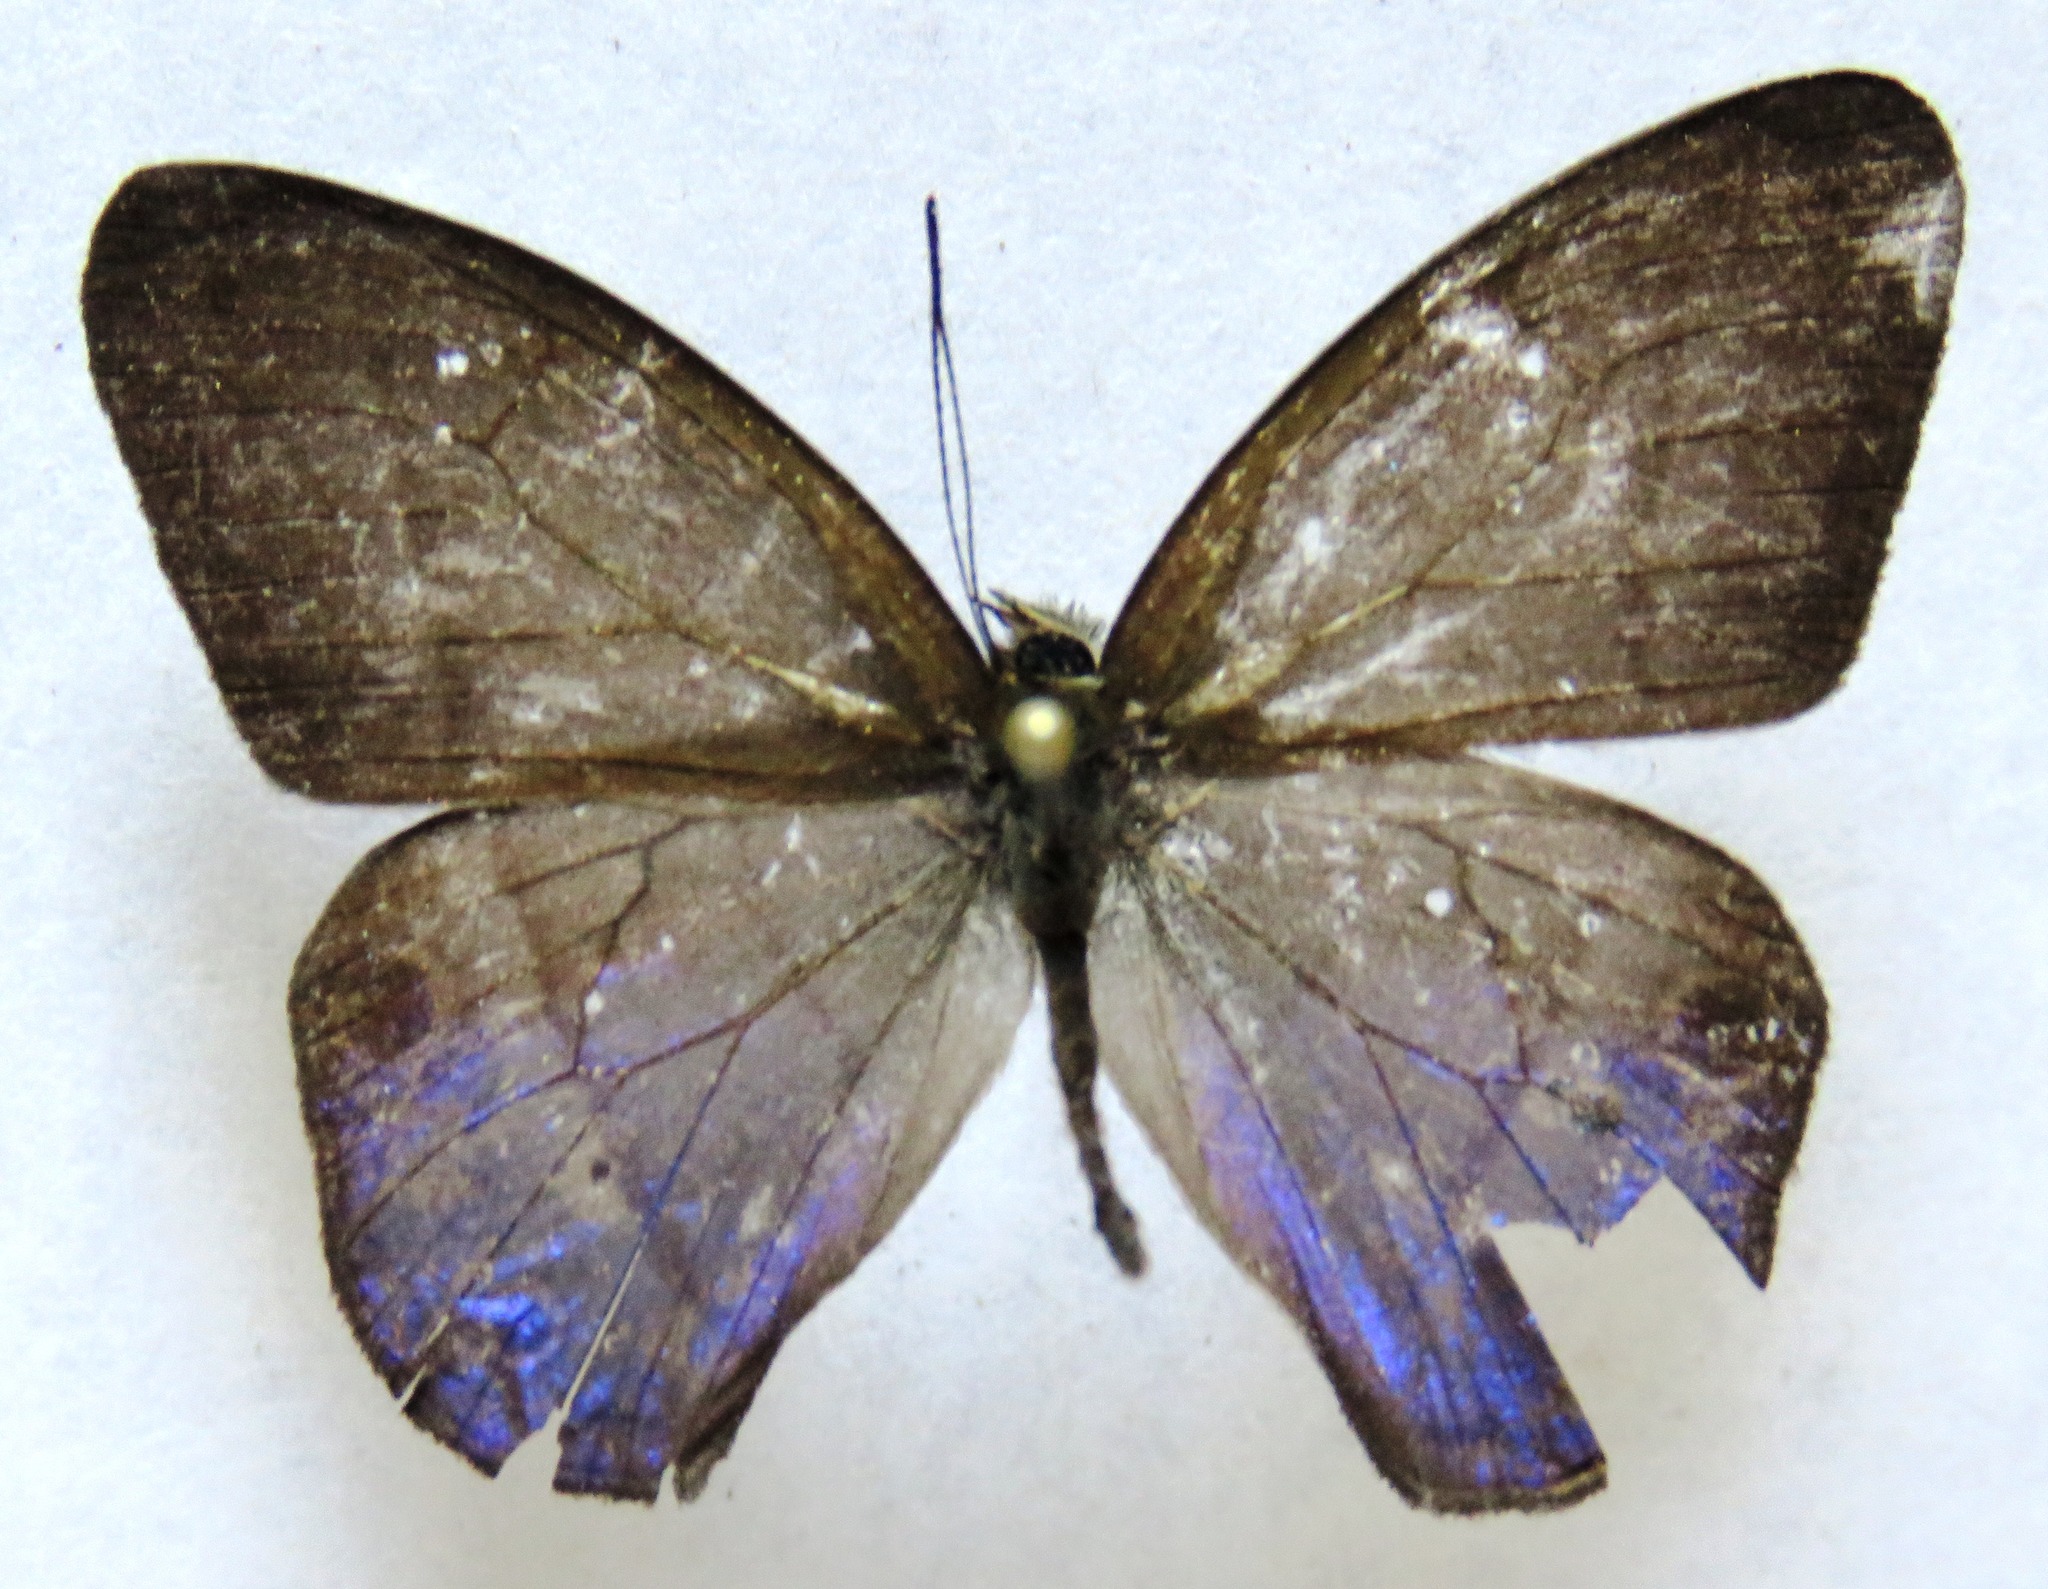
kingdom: Animalia
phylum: Arthropoda
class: Insecta
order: Lepidoptera
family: Nymphalidae
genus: Amiga
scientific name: Amiga arnaca
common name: Blue-topped satyr
